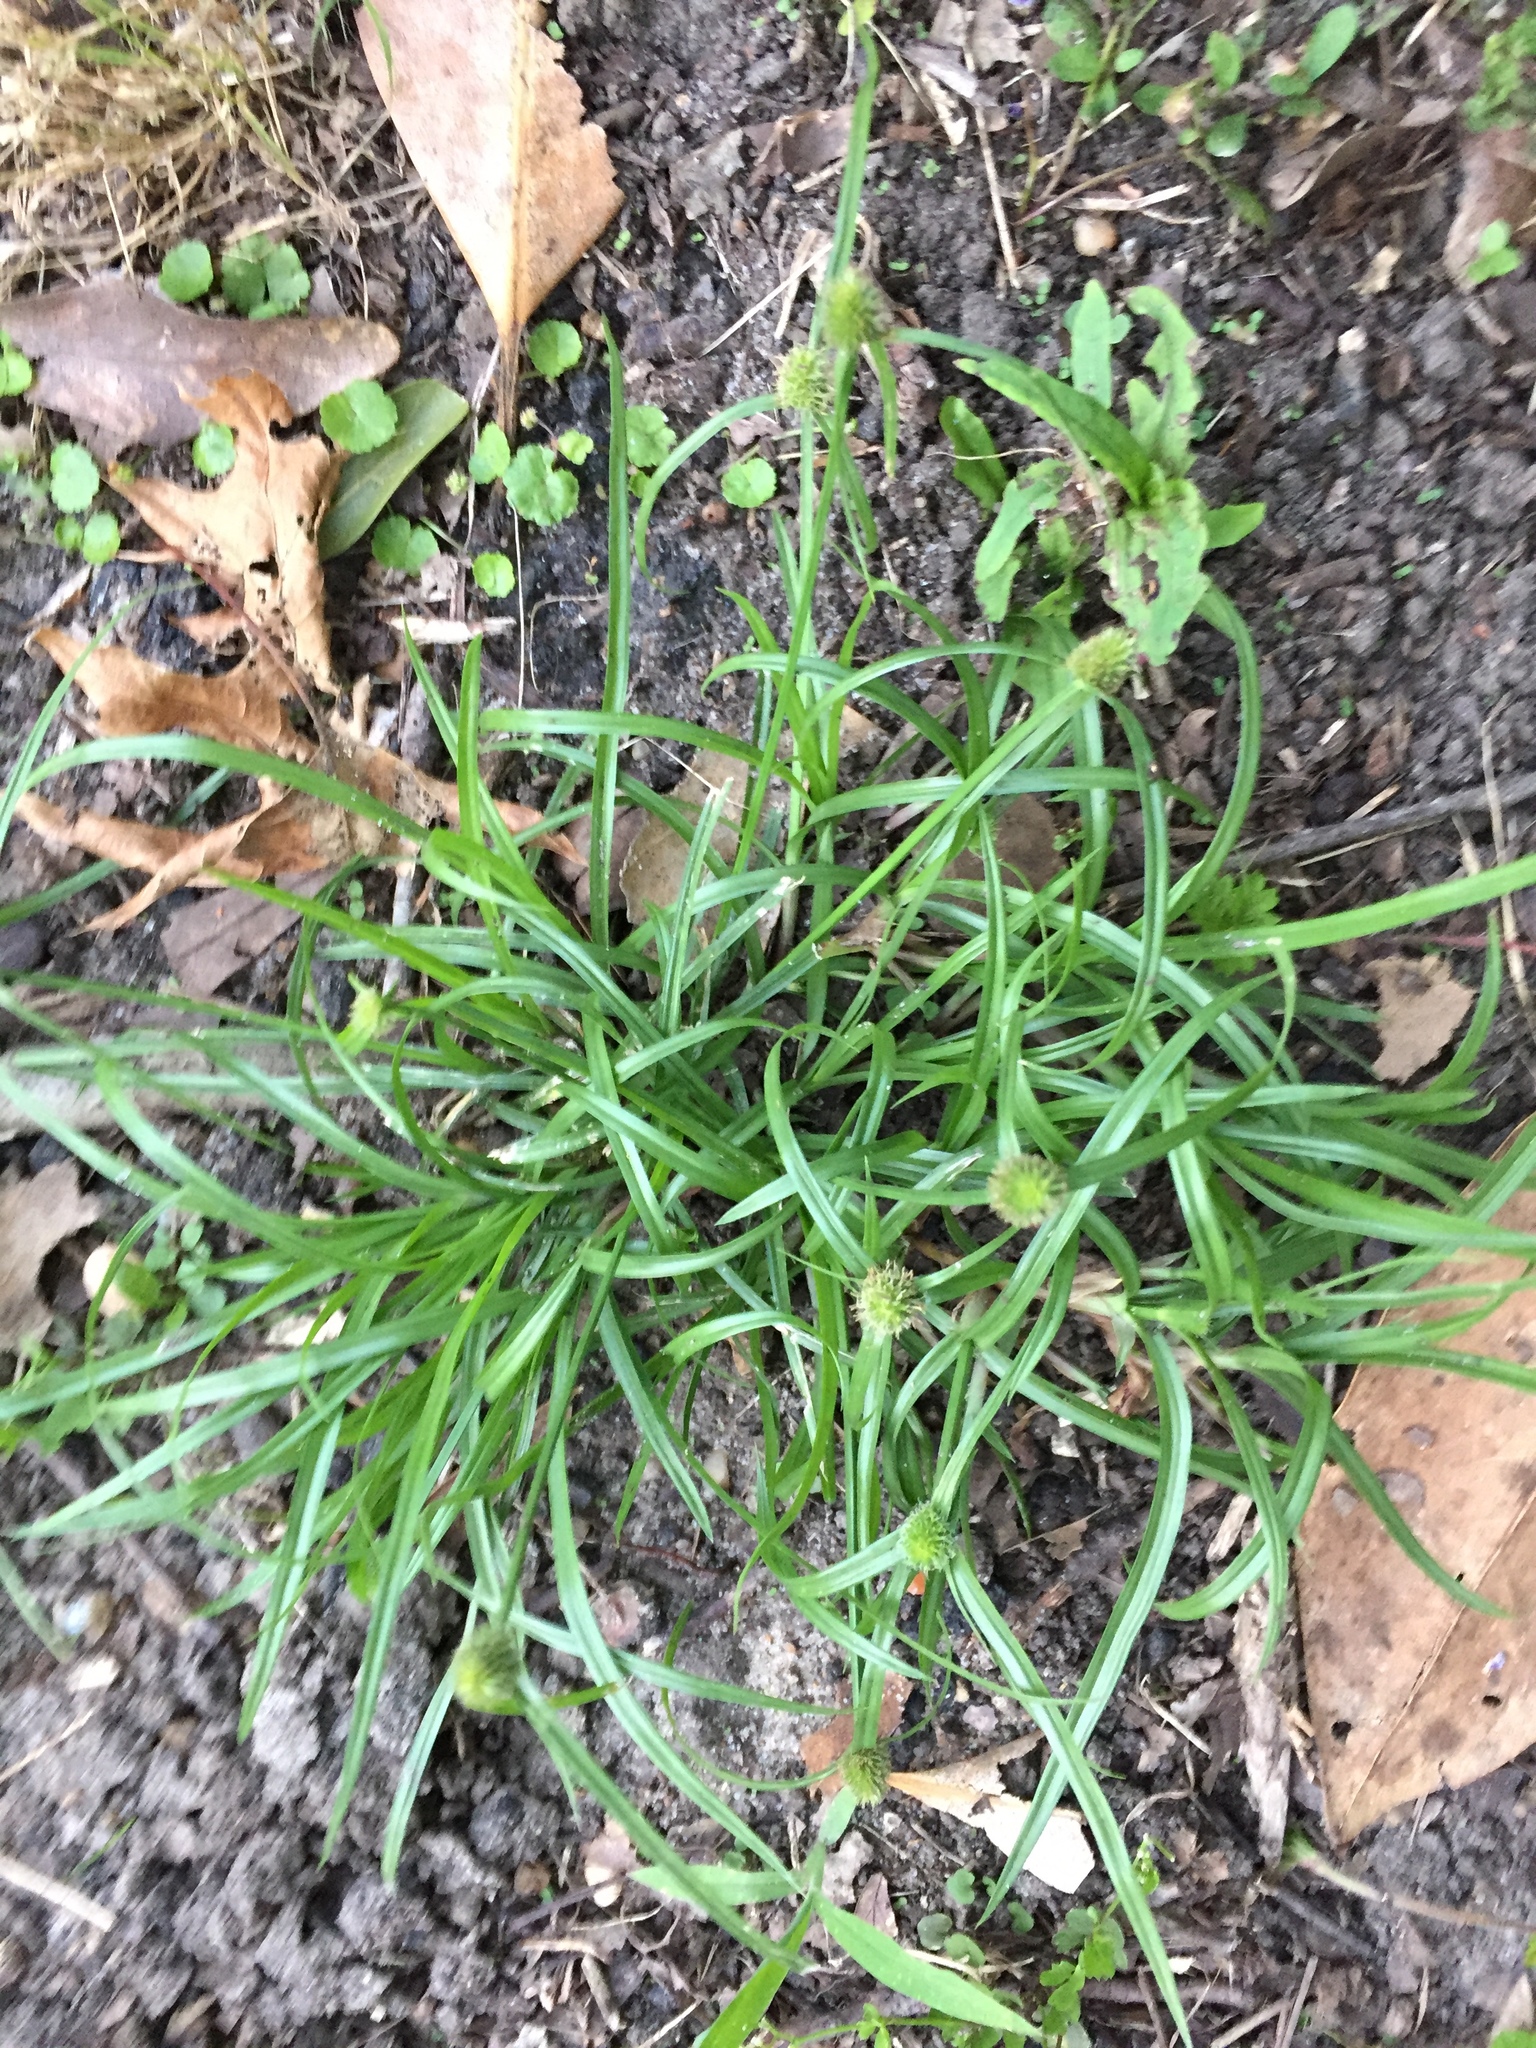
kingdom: Plantae
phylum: Tracheophyta
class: Liliopsida
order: Poales
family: Cyperaceae
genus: Cyperus
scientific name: Cyperus hortensis
